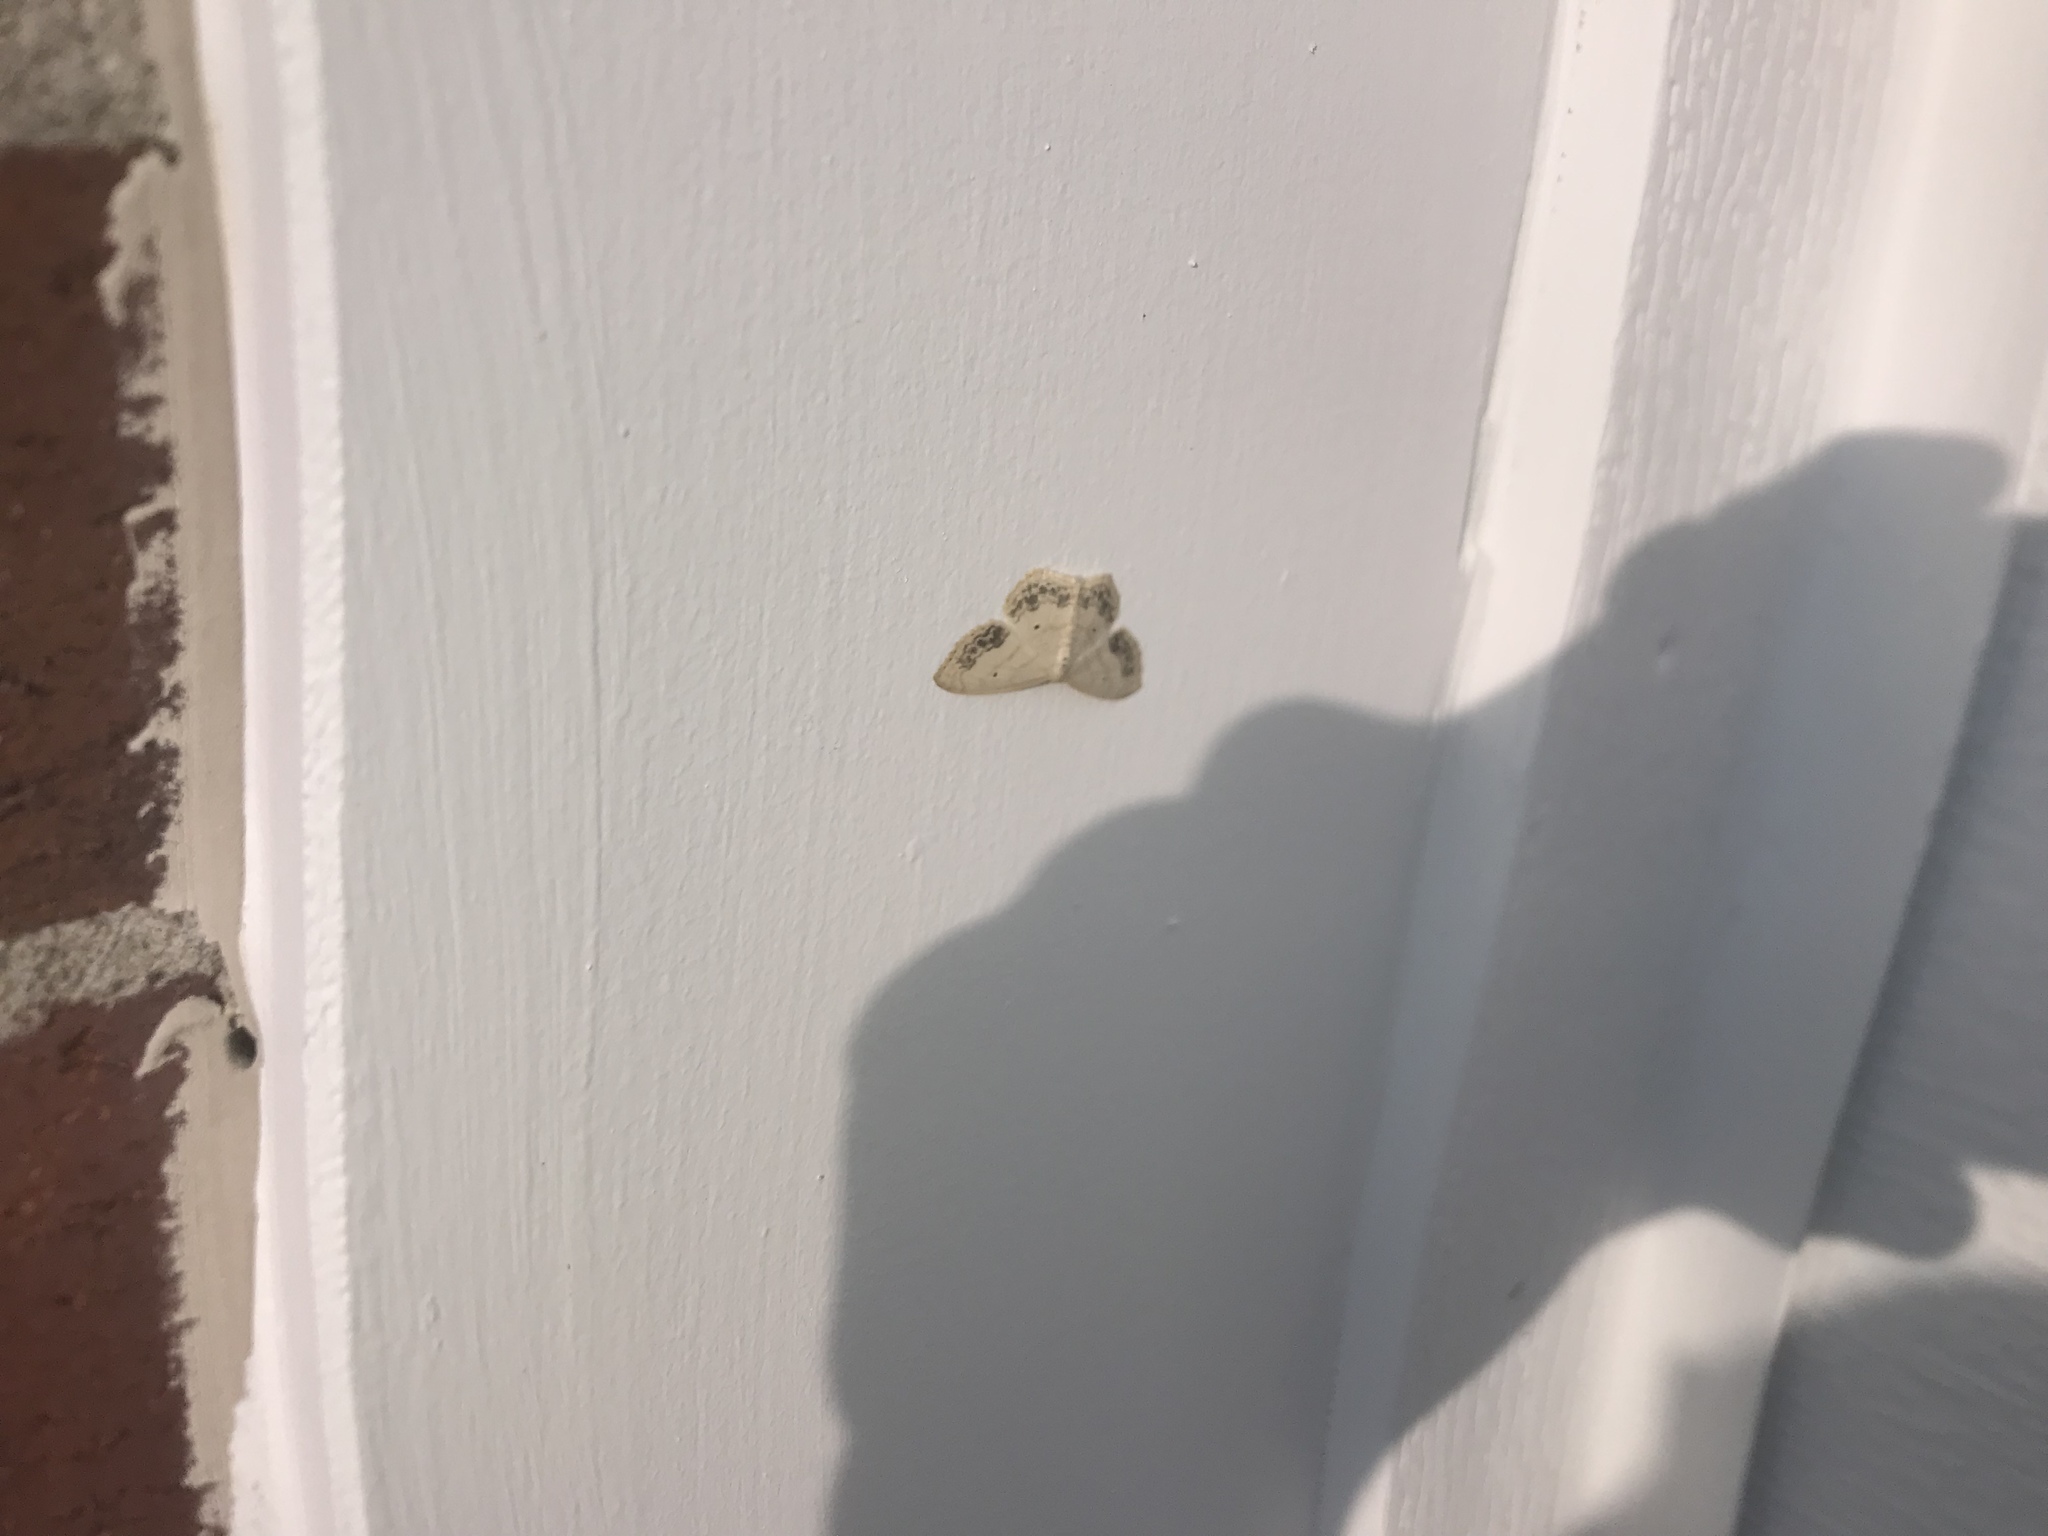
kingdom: Animalia
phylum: Arthropoda
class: Insecta
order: Lepidoptera
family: Geometridae
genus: Scopula
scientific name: Scopula limboundata
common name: Large lace border
